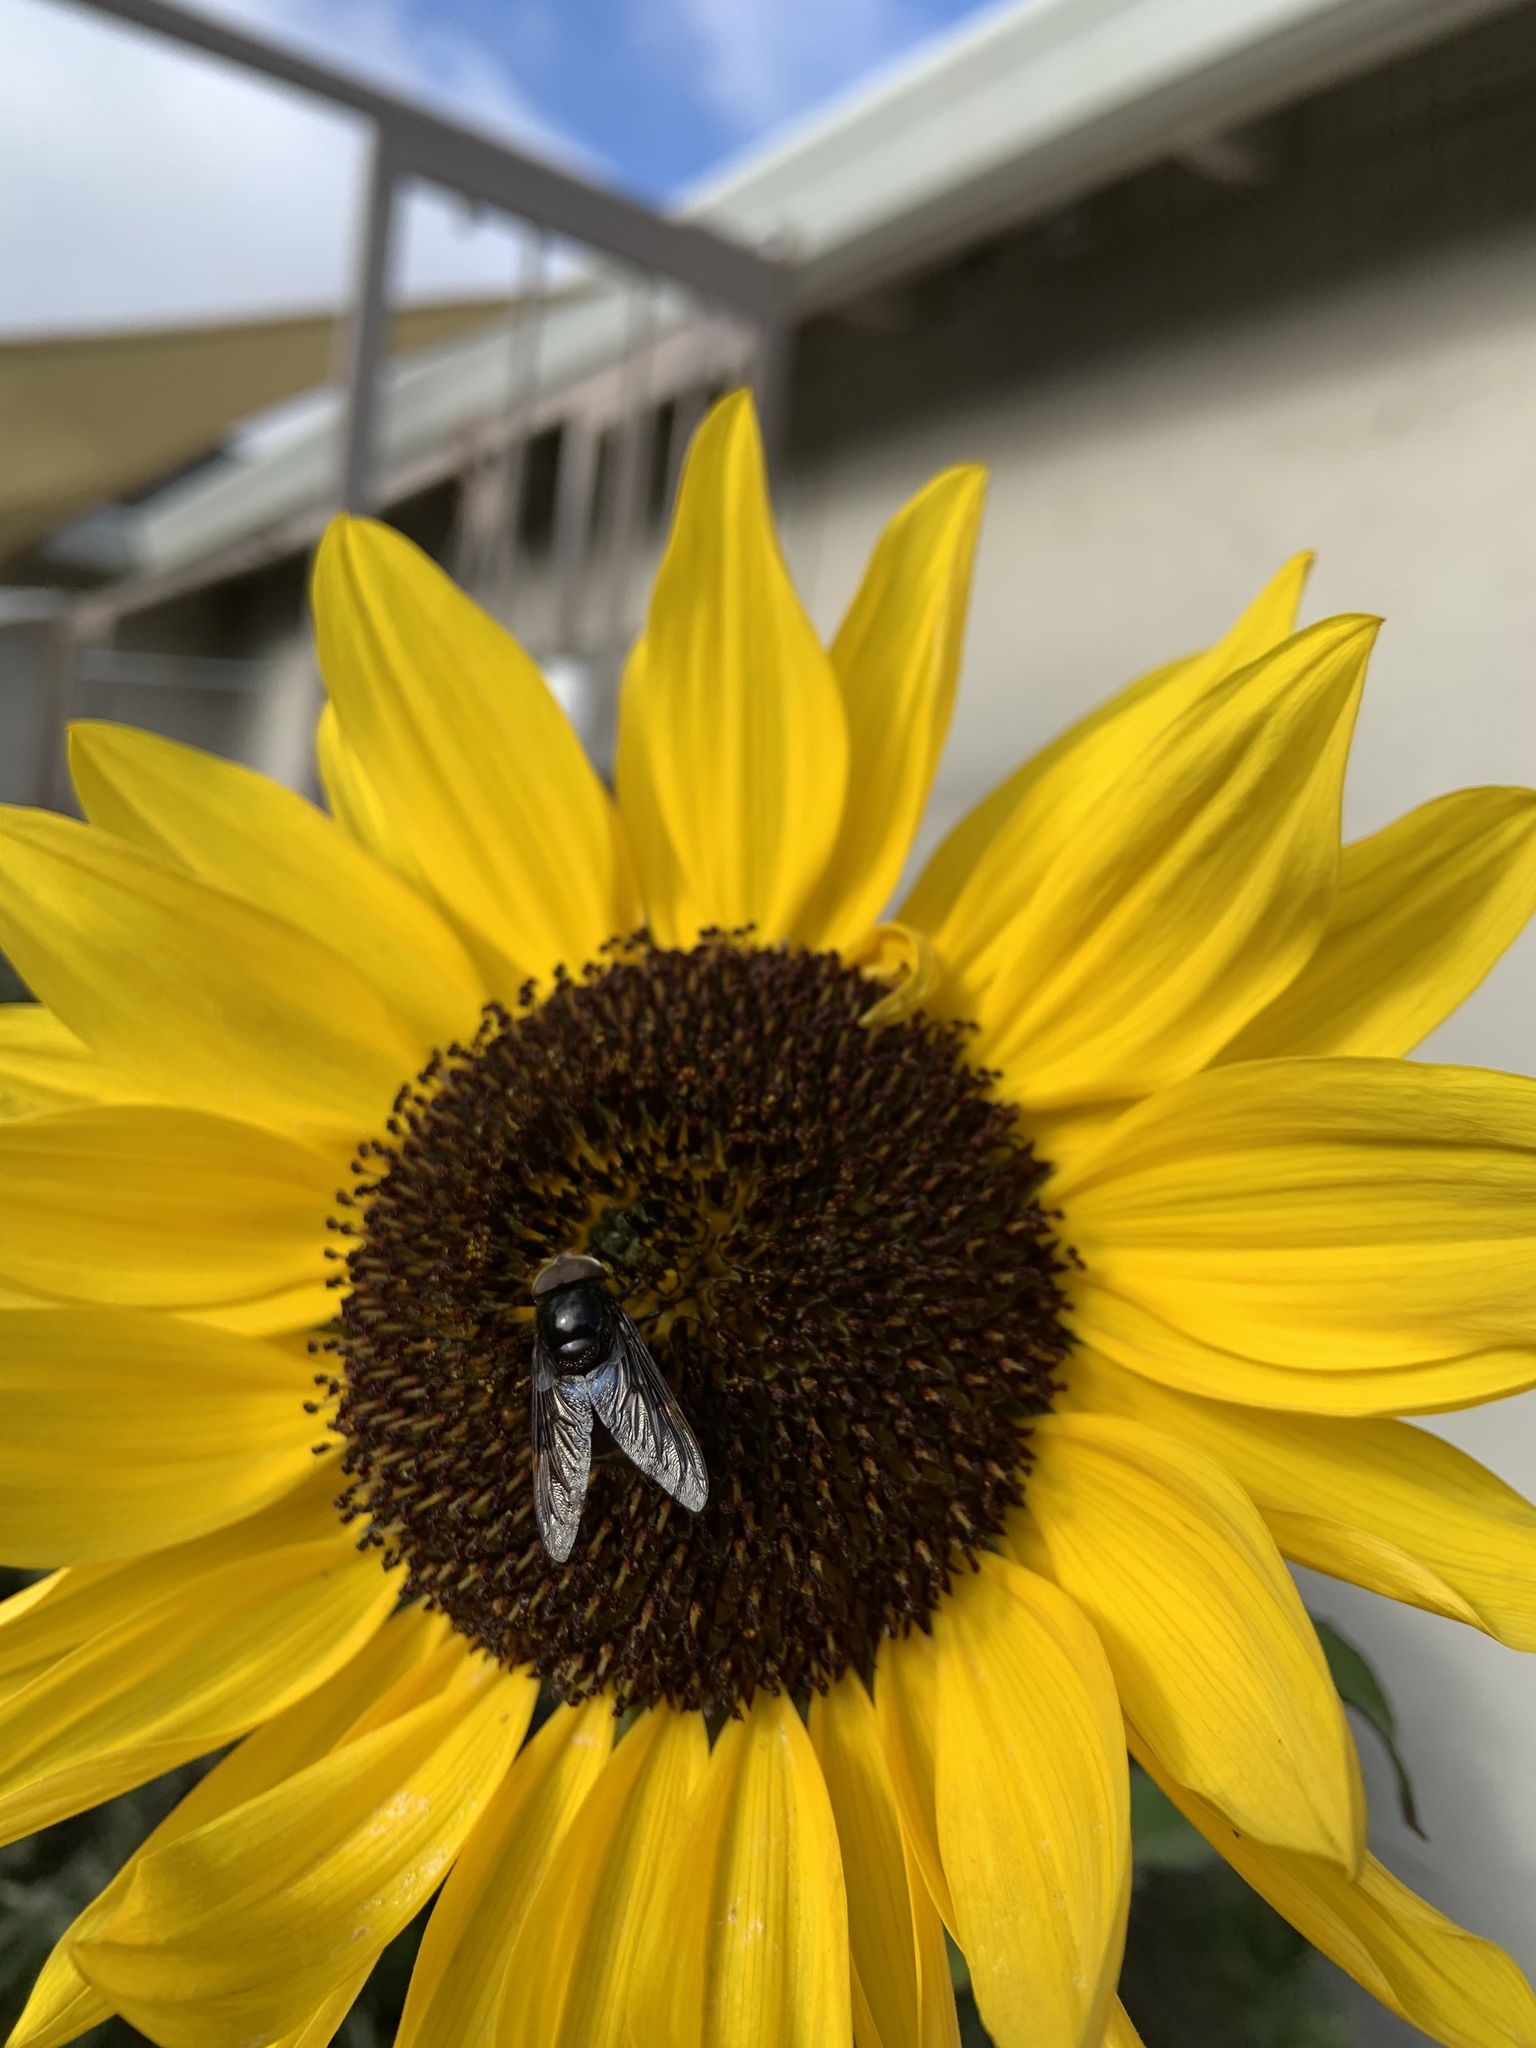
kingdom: Animalia
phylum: Arthropoda
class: Insecta
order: Diptera
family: Syrphidae
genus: Copestylum
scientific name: Copestylum
